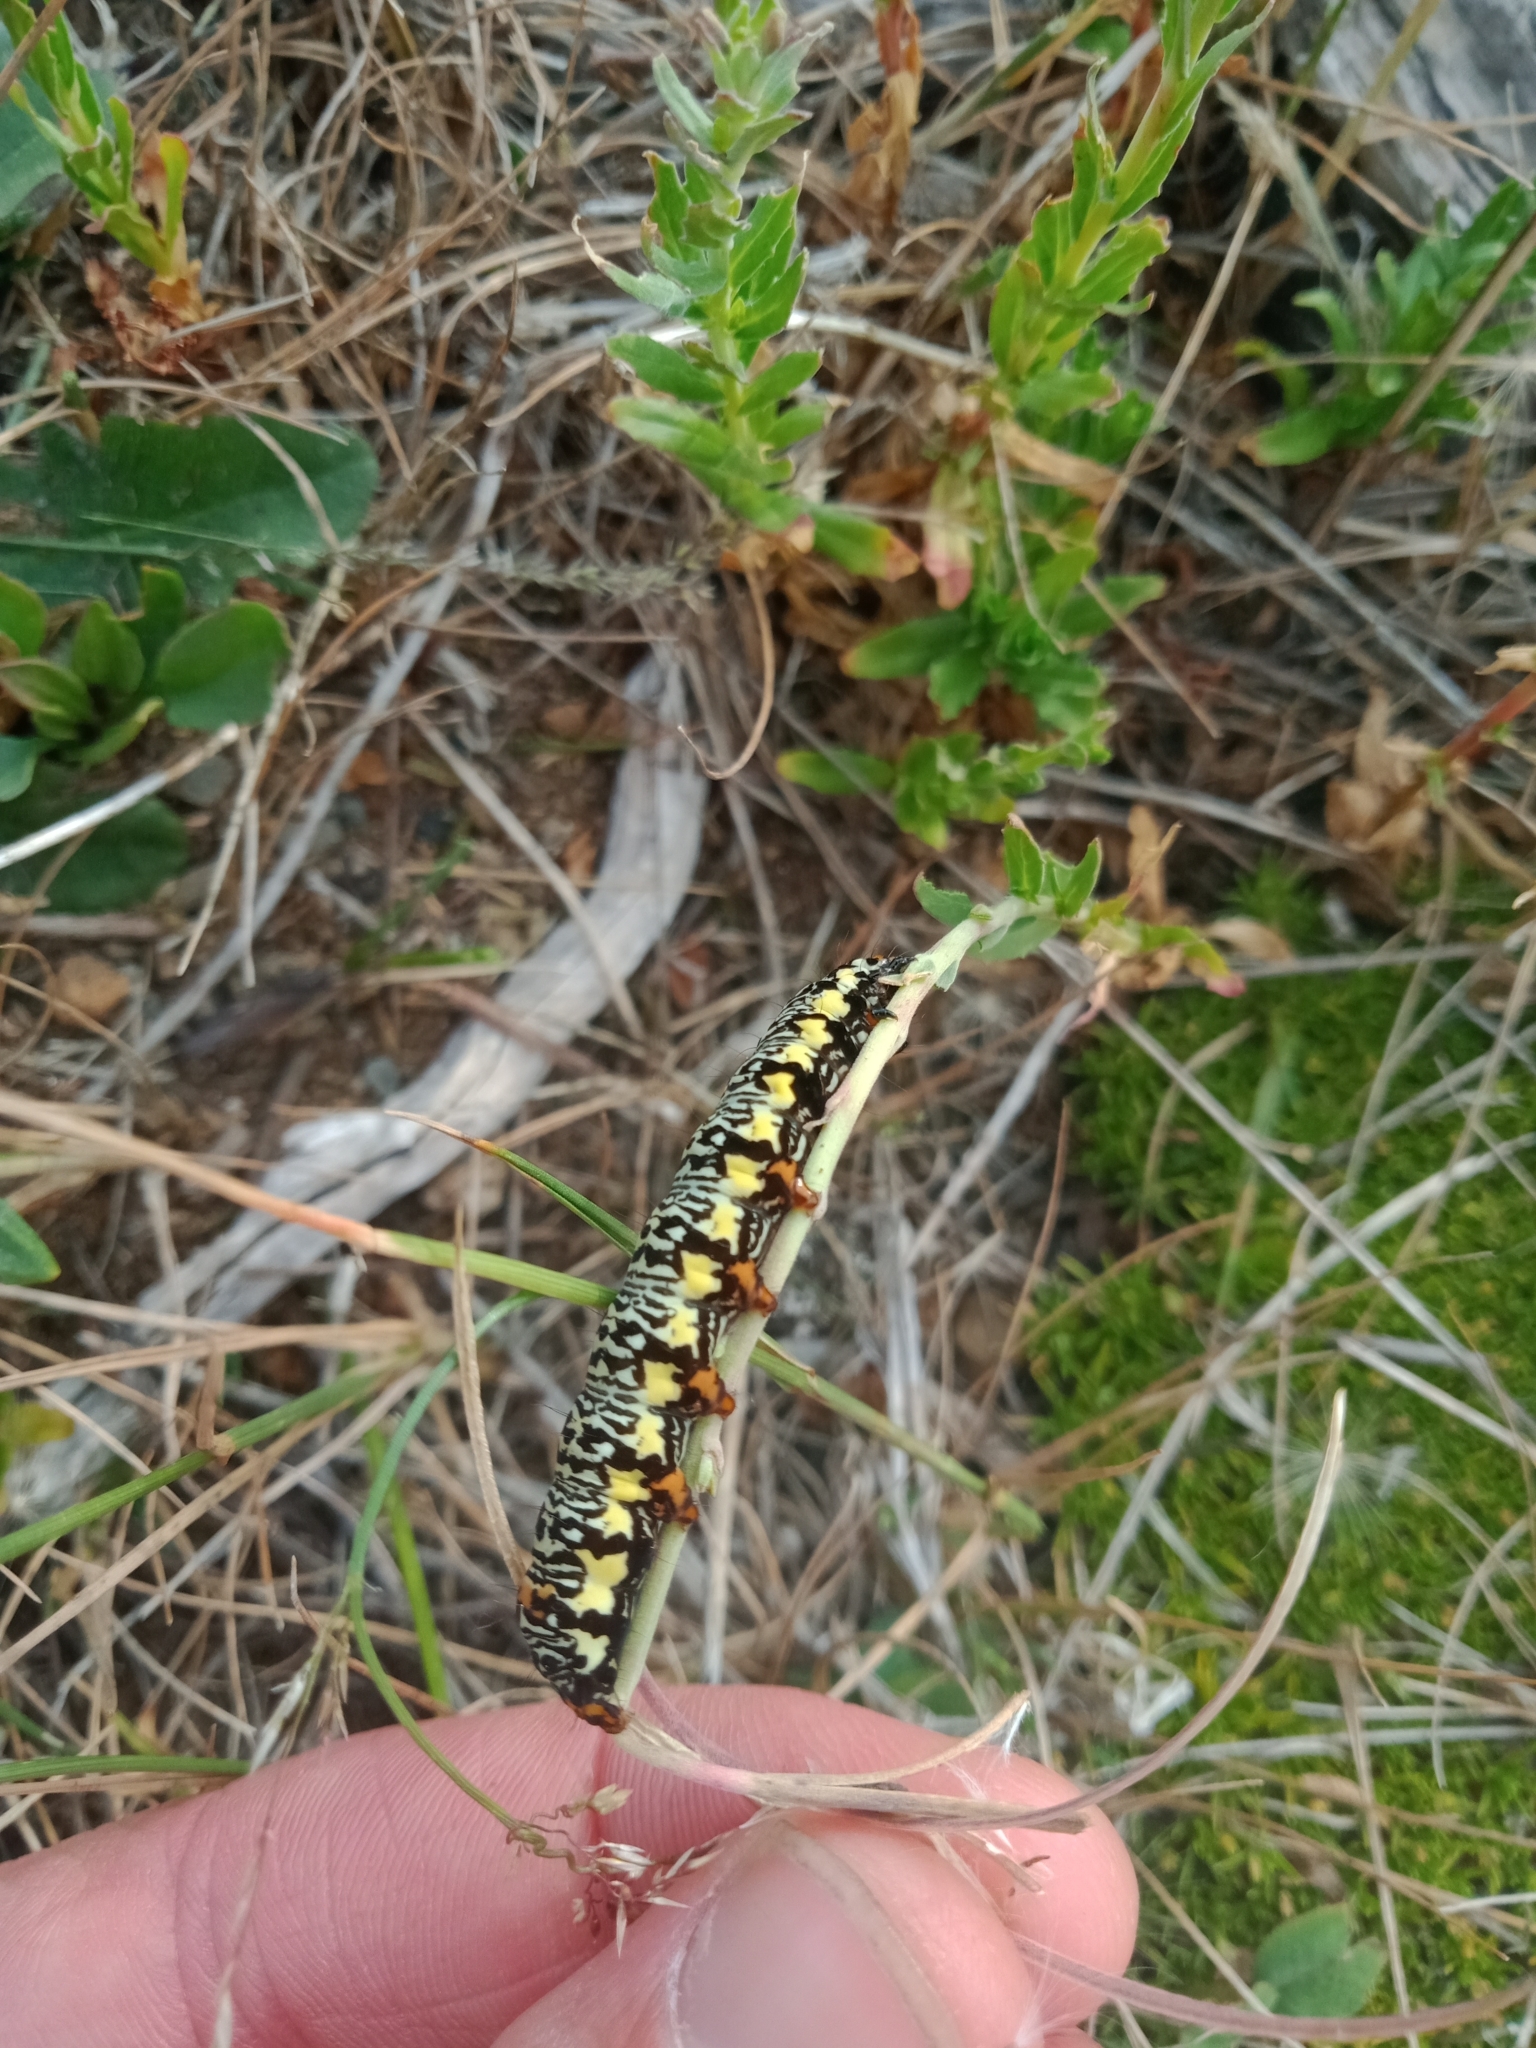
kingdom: Animalia
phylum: Arthropoda
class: Insecta
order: Lepidoptera
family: Noctuidae
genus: Phalaenoides
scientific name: Phalaenoides tristifica
